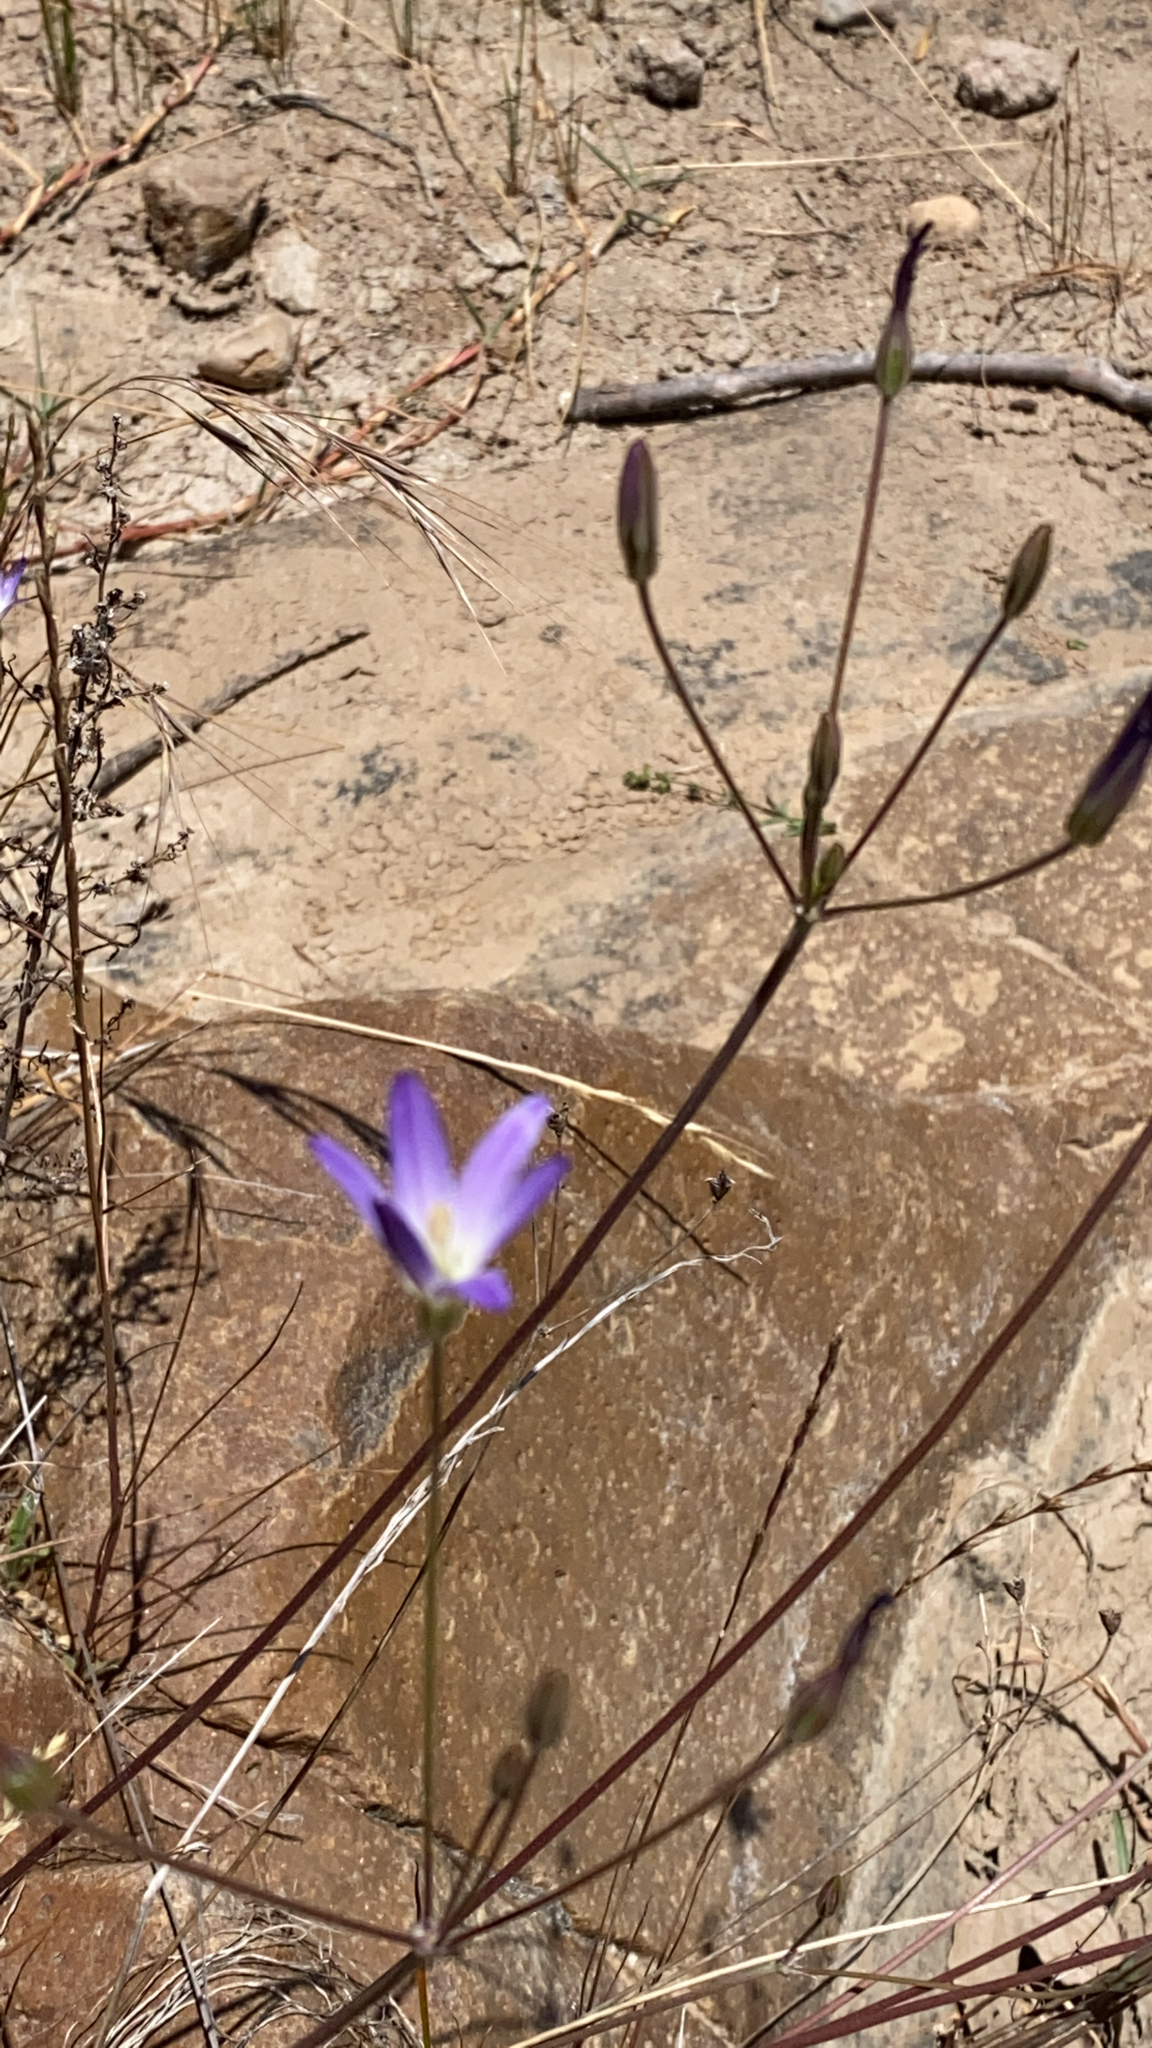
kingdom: Plantae
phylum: Tracheophyta
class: Liliopsida
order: Asparagales
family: Asparagaceae
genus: Brodiaea
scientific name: Brodiaea orcuttii
